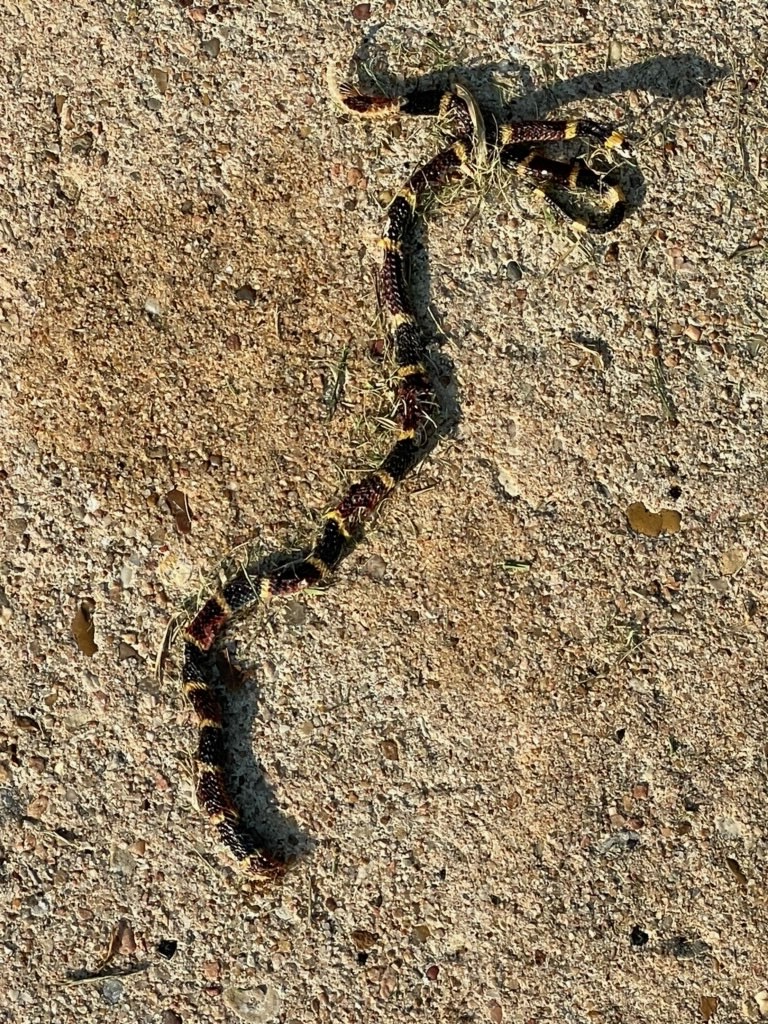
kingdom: Animalia
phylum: Chordata
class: Squamata
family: Elapidae
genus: Micrurus
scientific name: Micrurus tener
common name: Texas coral snake
